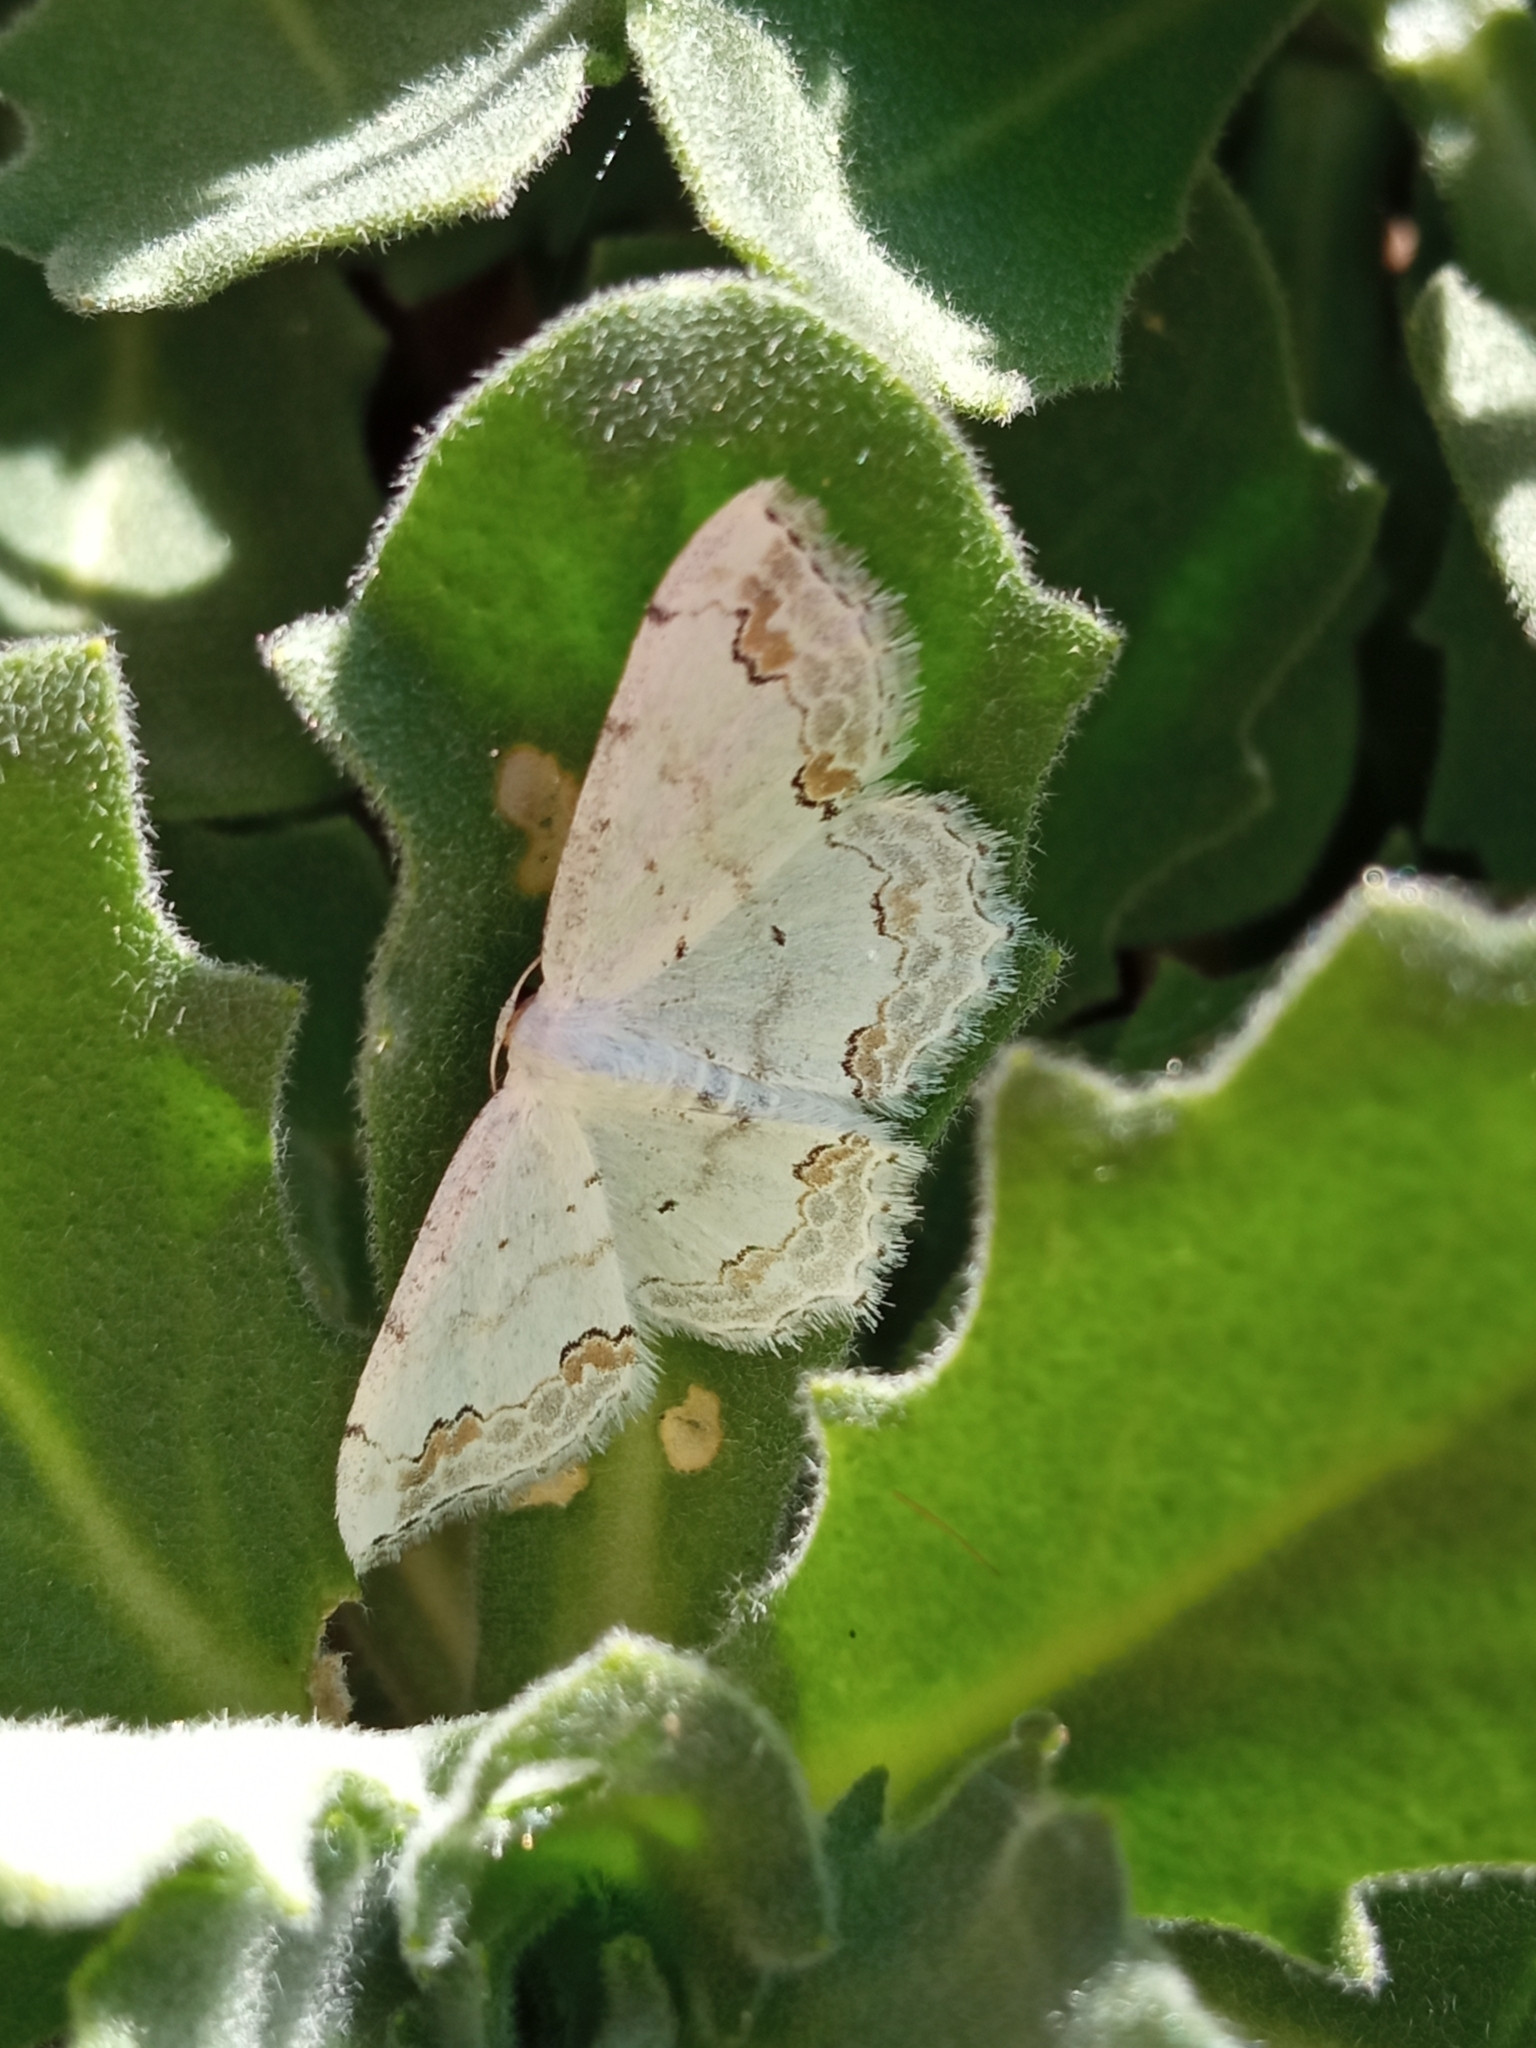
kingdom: Animalia
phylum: Arthropoda
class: Insecta
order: Lepidoptera
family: Geometridae
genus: Scopula
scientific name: Scopula ornata
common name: Lace border
